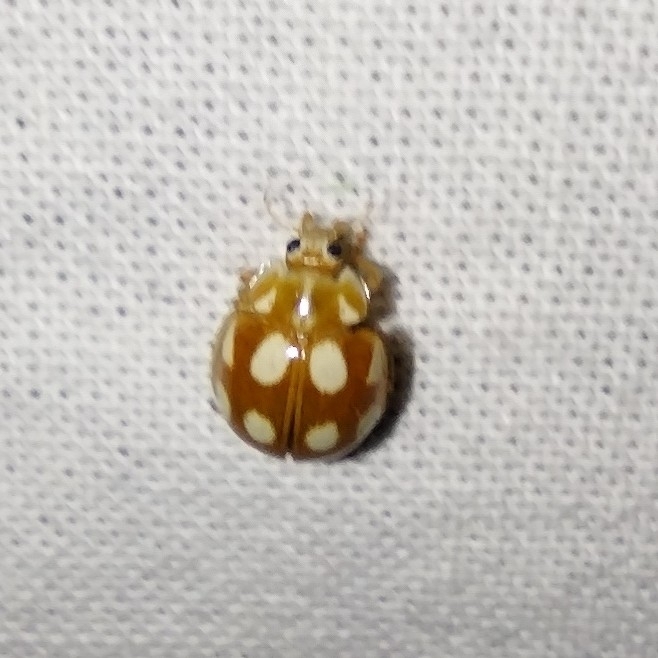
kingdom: Animalia
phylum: Arthropoda
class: Insecta
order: Coleoptera
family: Coccinellidae
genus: Calvia
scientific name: Calvia decemguttata
